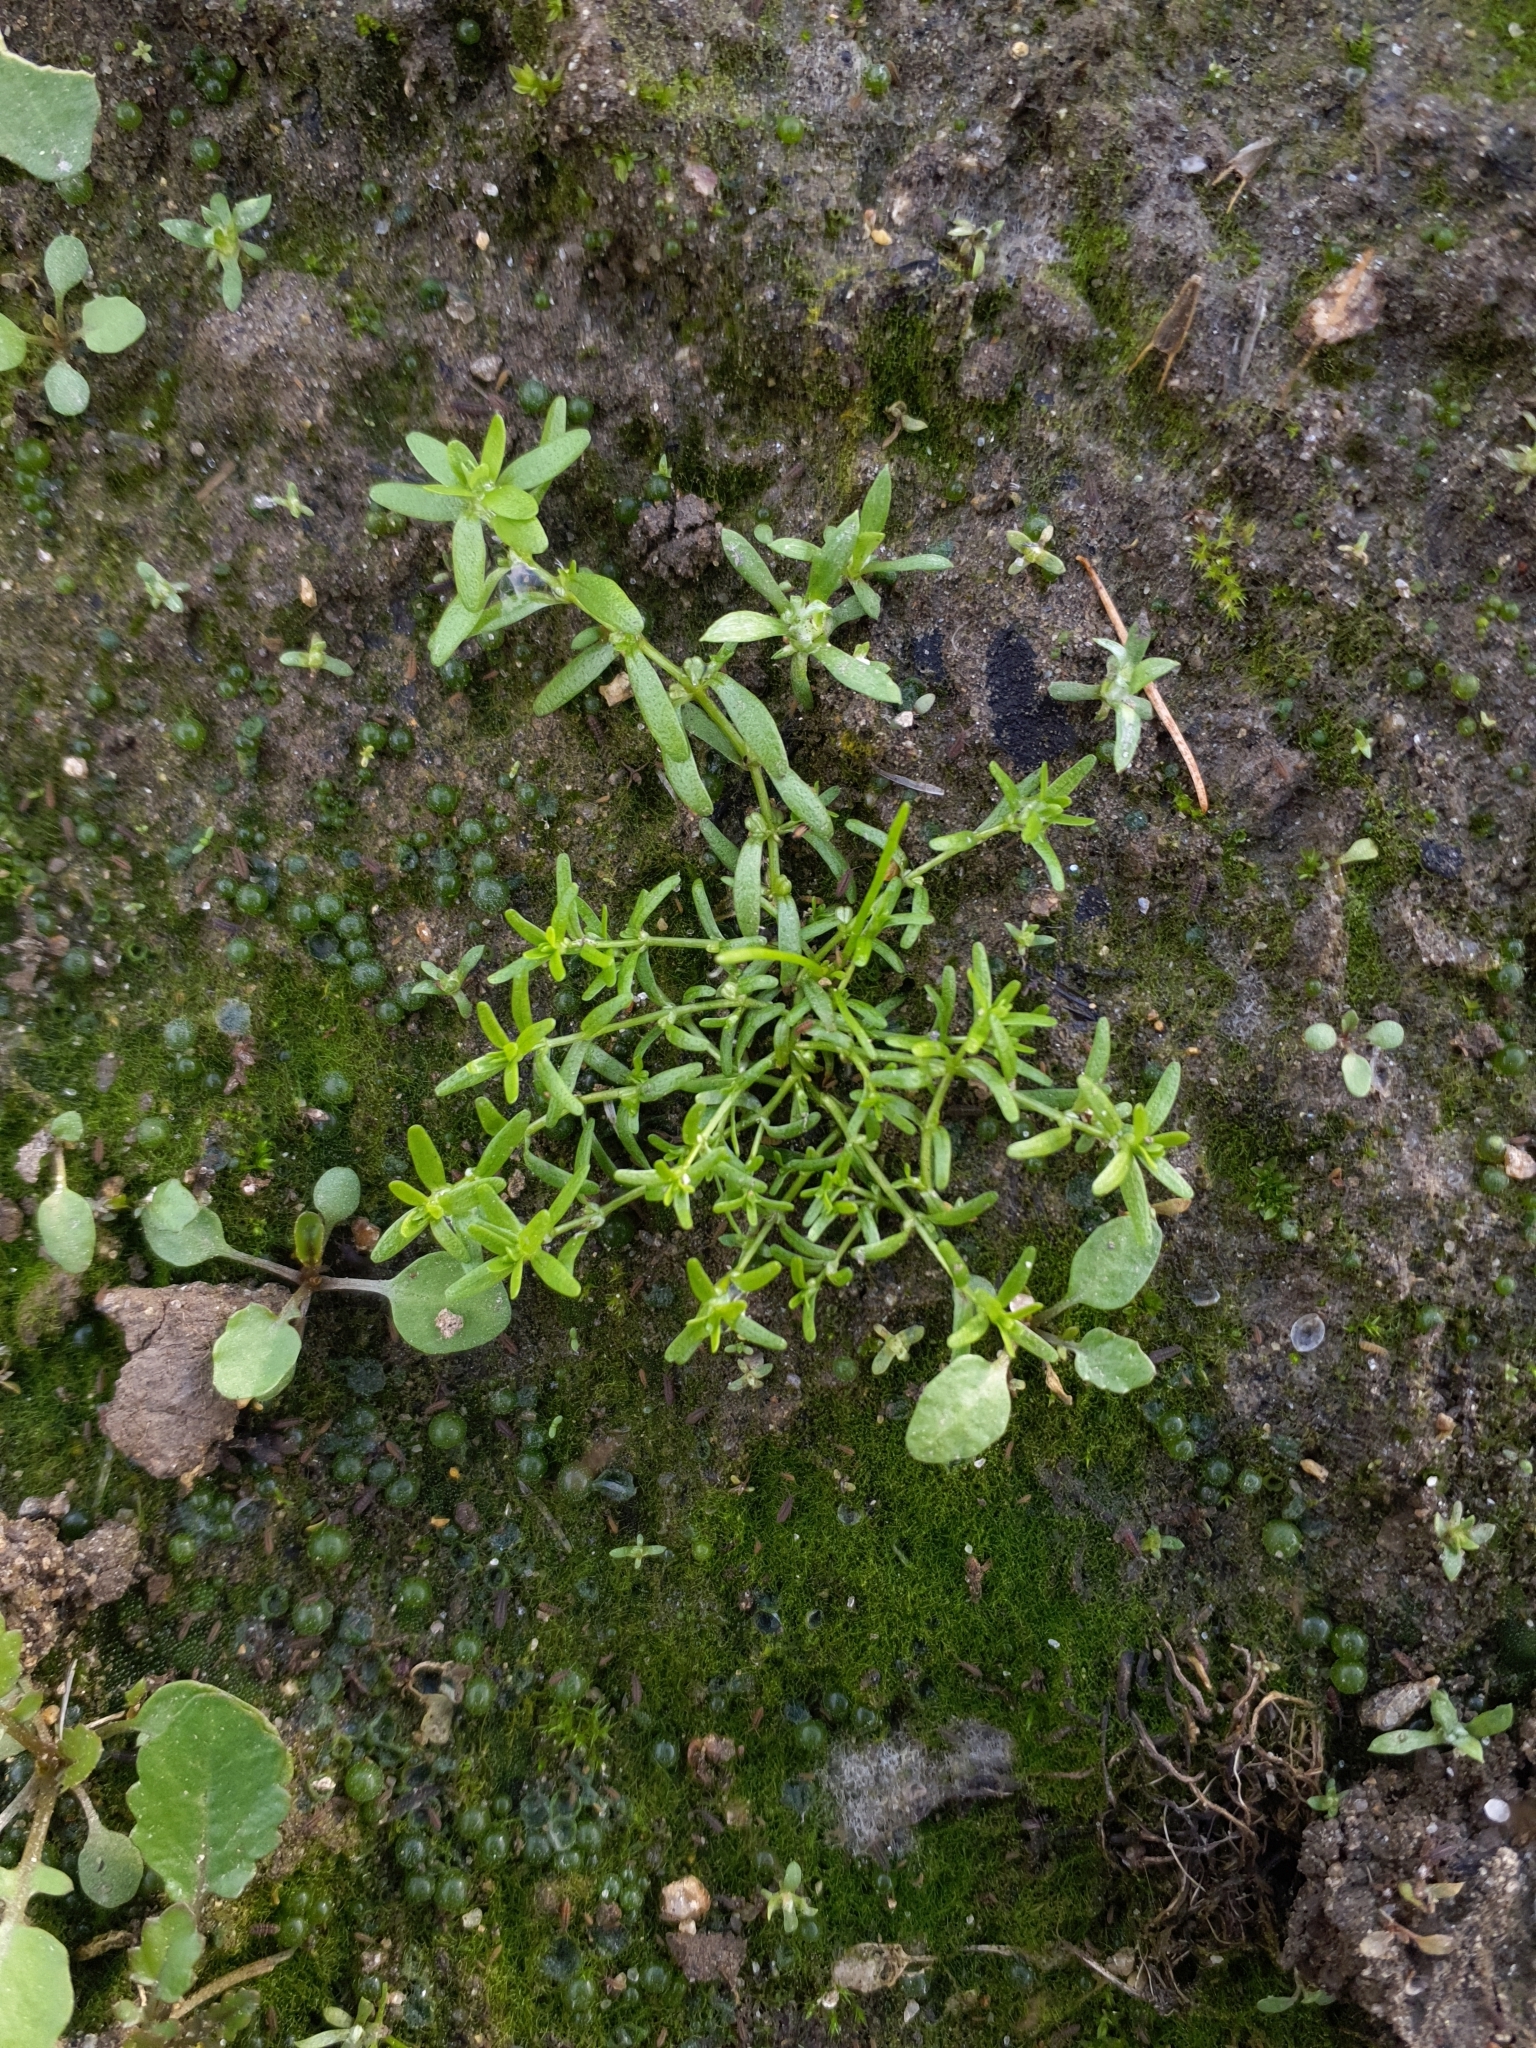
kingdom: Plantae
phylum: Tracheophyta
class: Magnoliopsida
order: Lamiales
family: Plantaginaceae
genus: Callitriche
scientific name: Callitriche palustris
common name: Spring water-starwort
